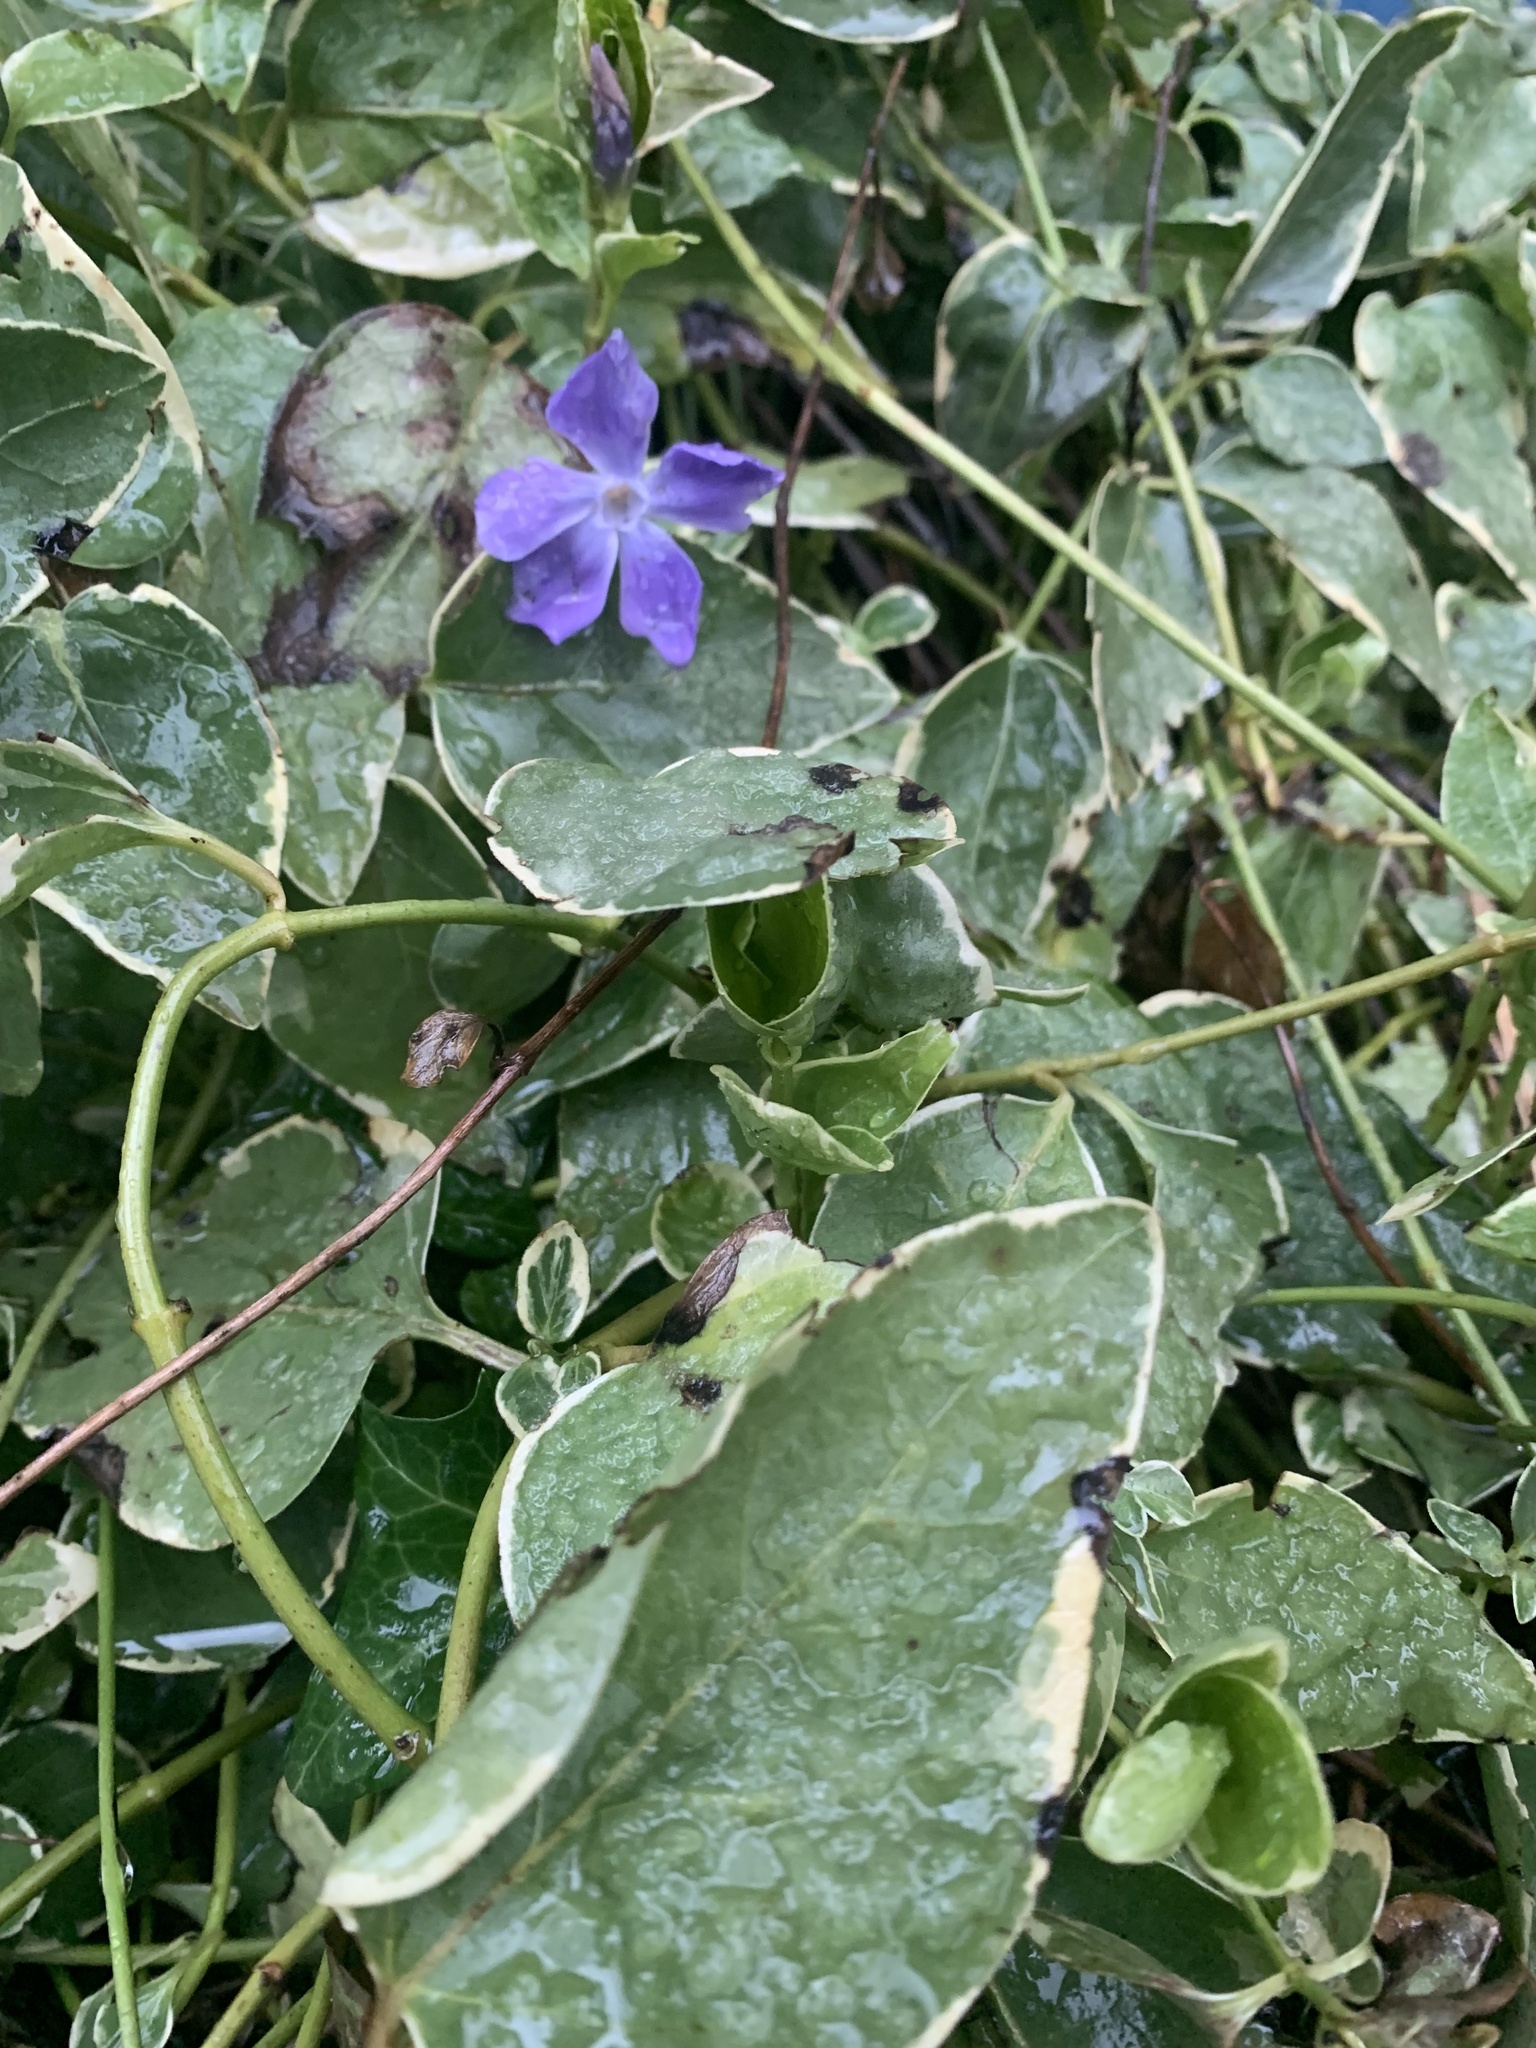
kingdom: Plantae
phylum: Tracheophyta
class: Magnoliopsida
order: Gentianales
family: Apocynaceae
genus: Vinca
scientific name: Vinca major
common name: Greater periwinkle
